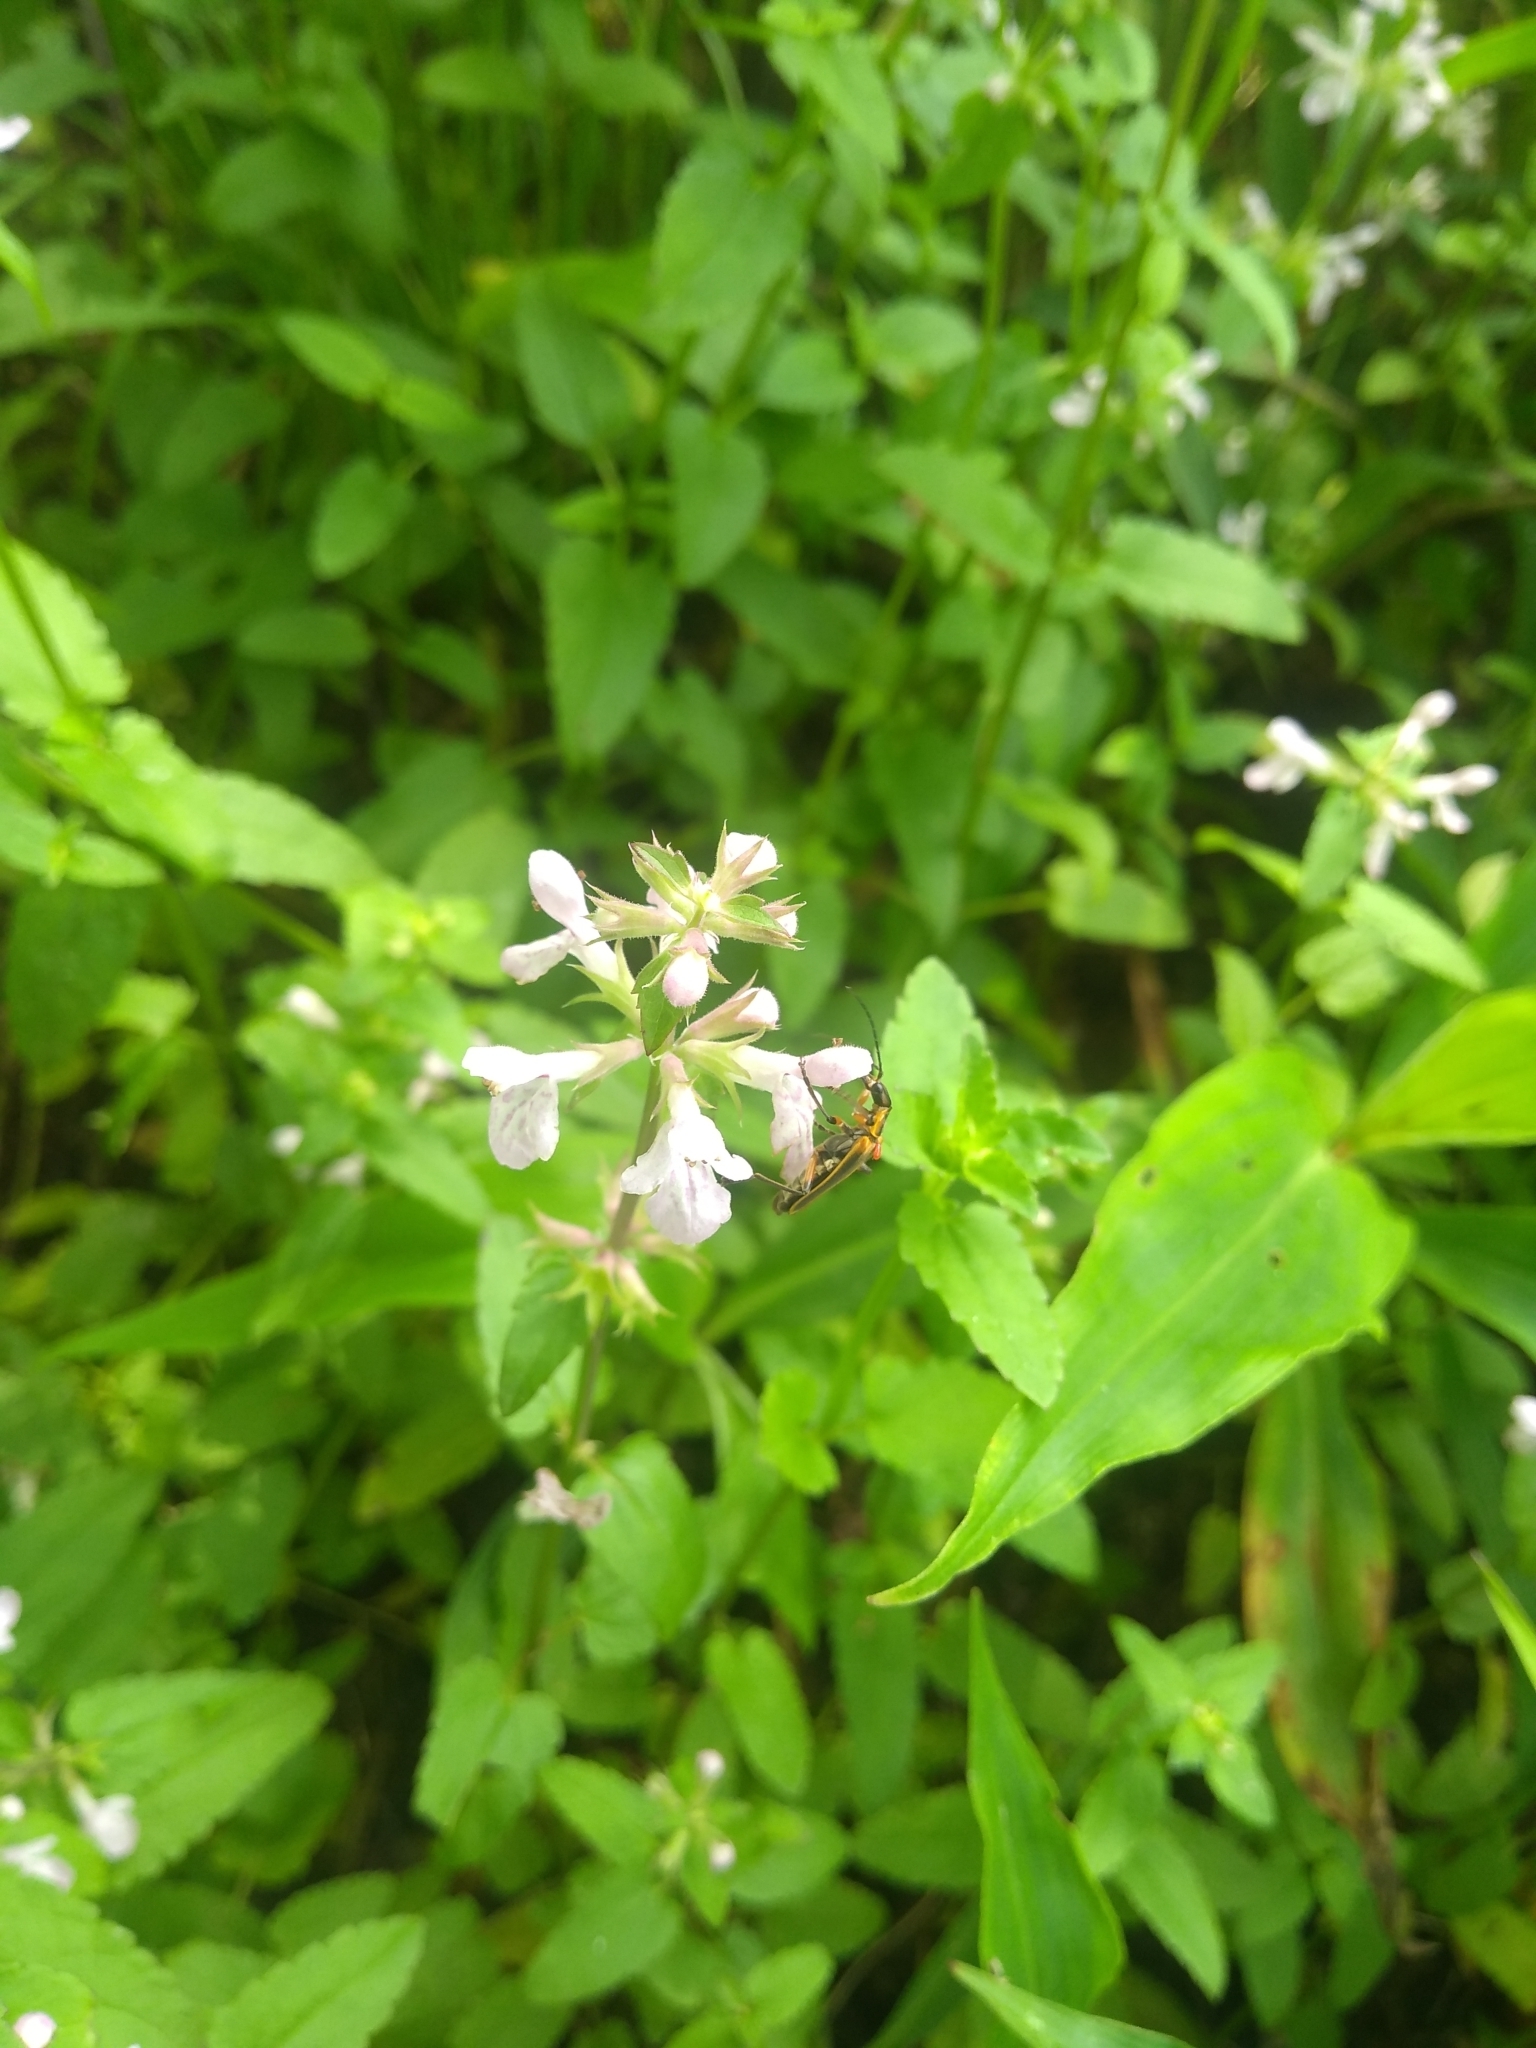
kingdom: Animalia
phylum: Arthropoda
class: Insecta
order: Coleoptera
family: Cantharidae
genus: Chauliognathus
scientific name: Chauliognathus marginatus
